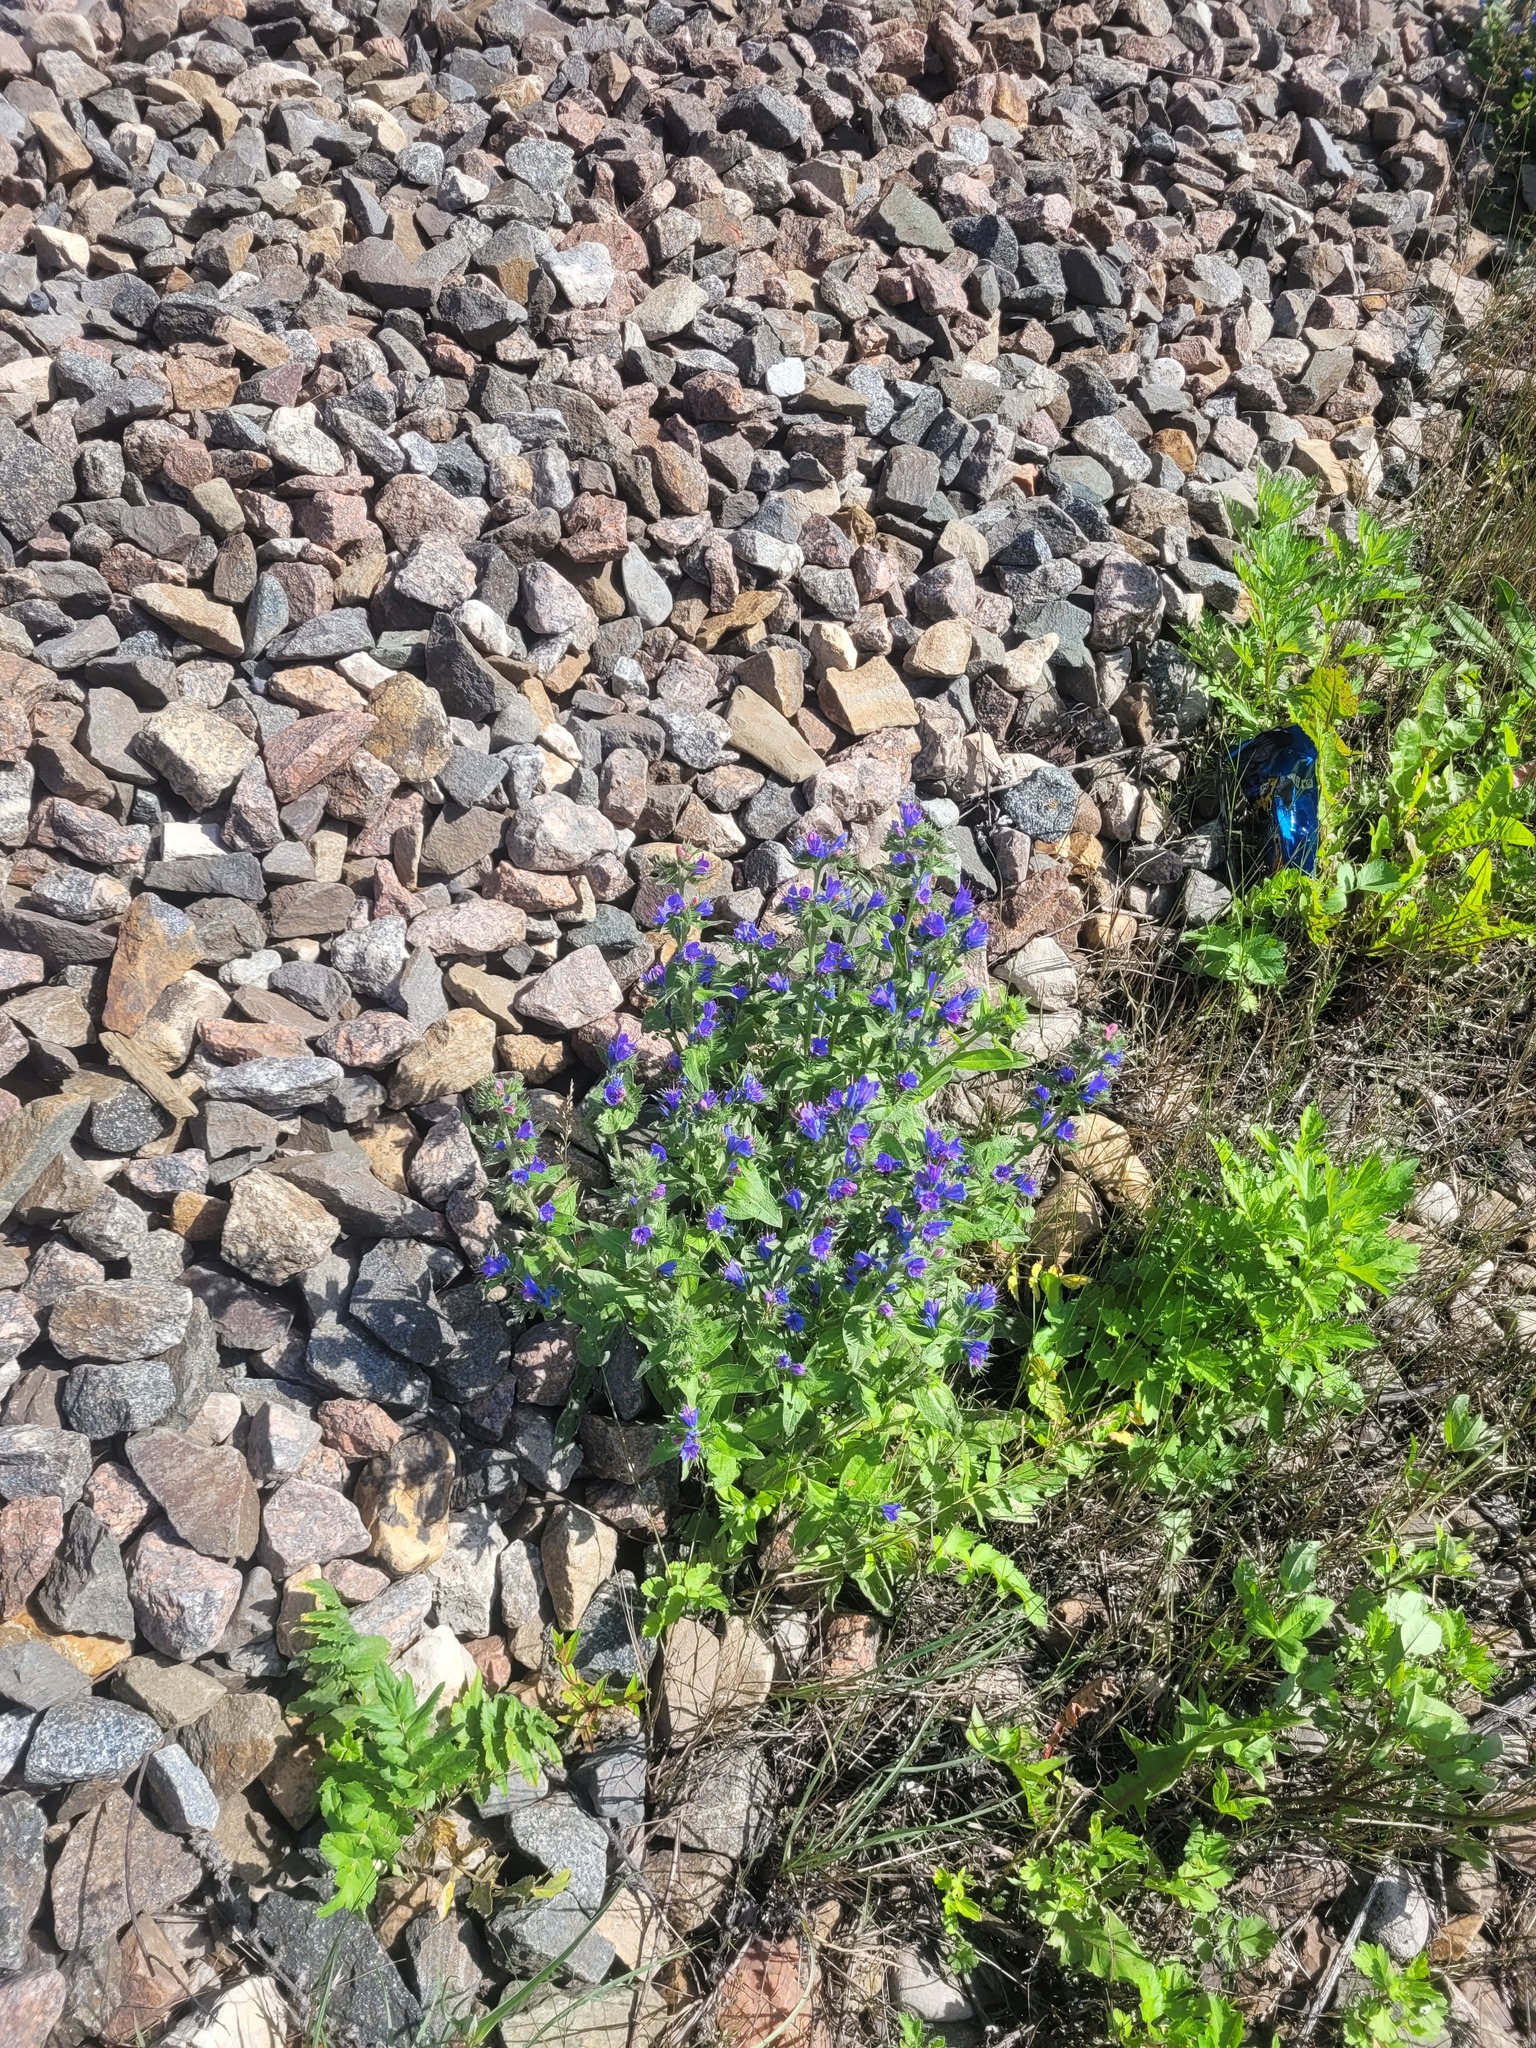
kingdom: Plantae
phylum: Tracheophyta
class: Magnoliopsida
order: Boraginales
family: Boraginaceae
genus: Echium
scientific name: Echium vulgare
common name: Common viper's bugloss
